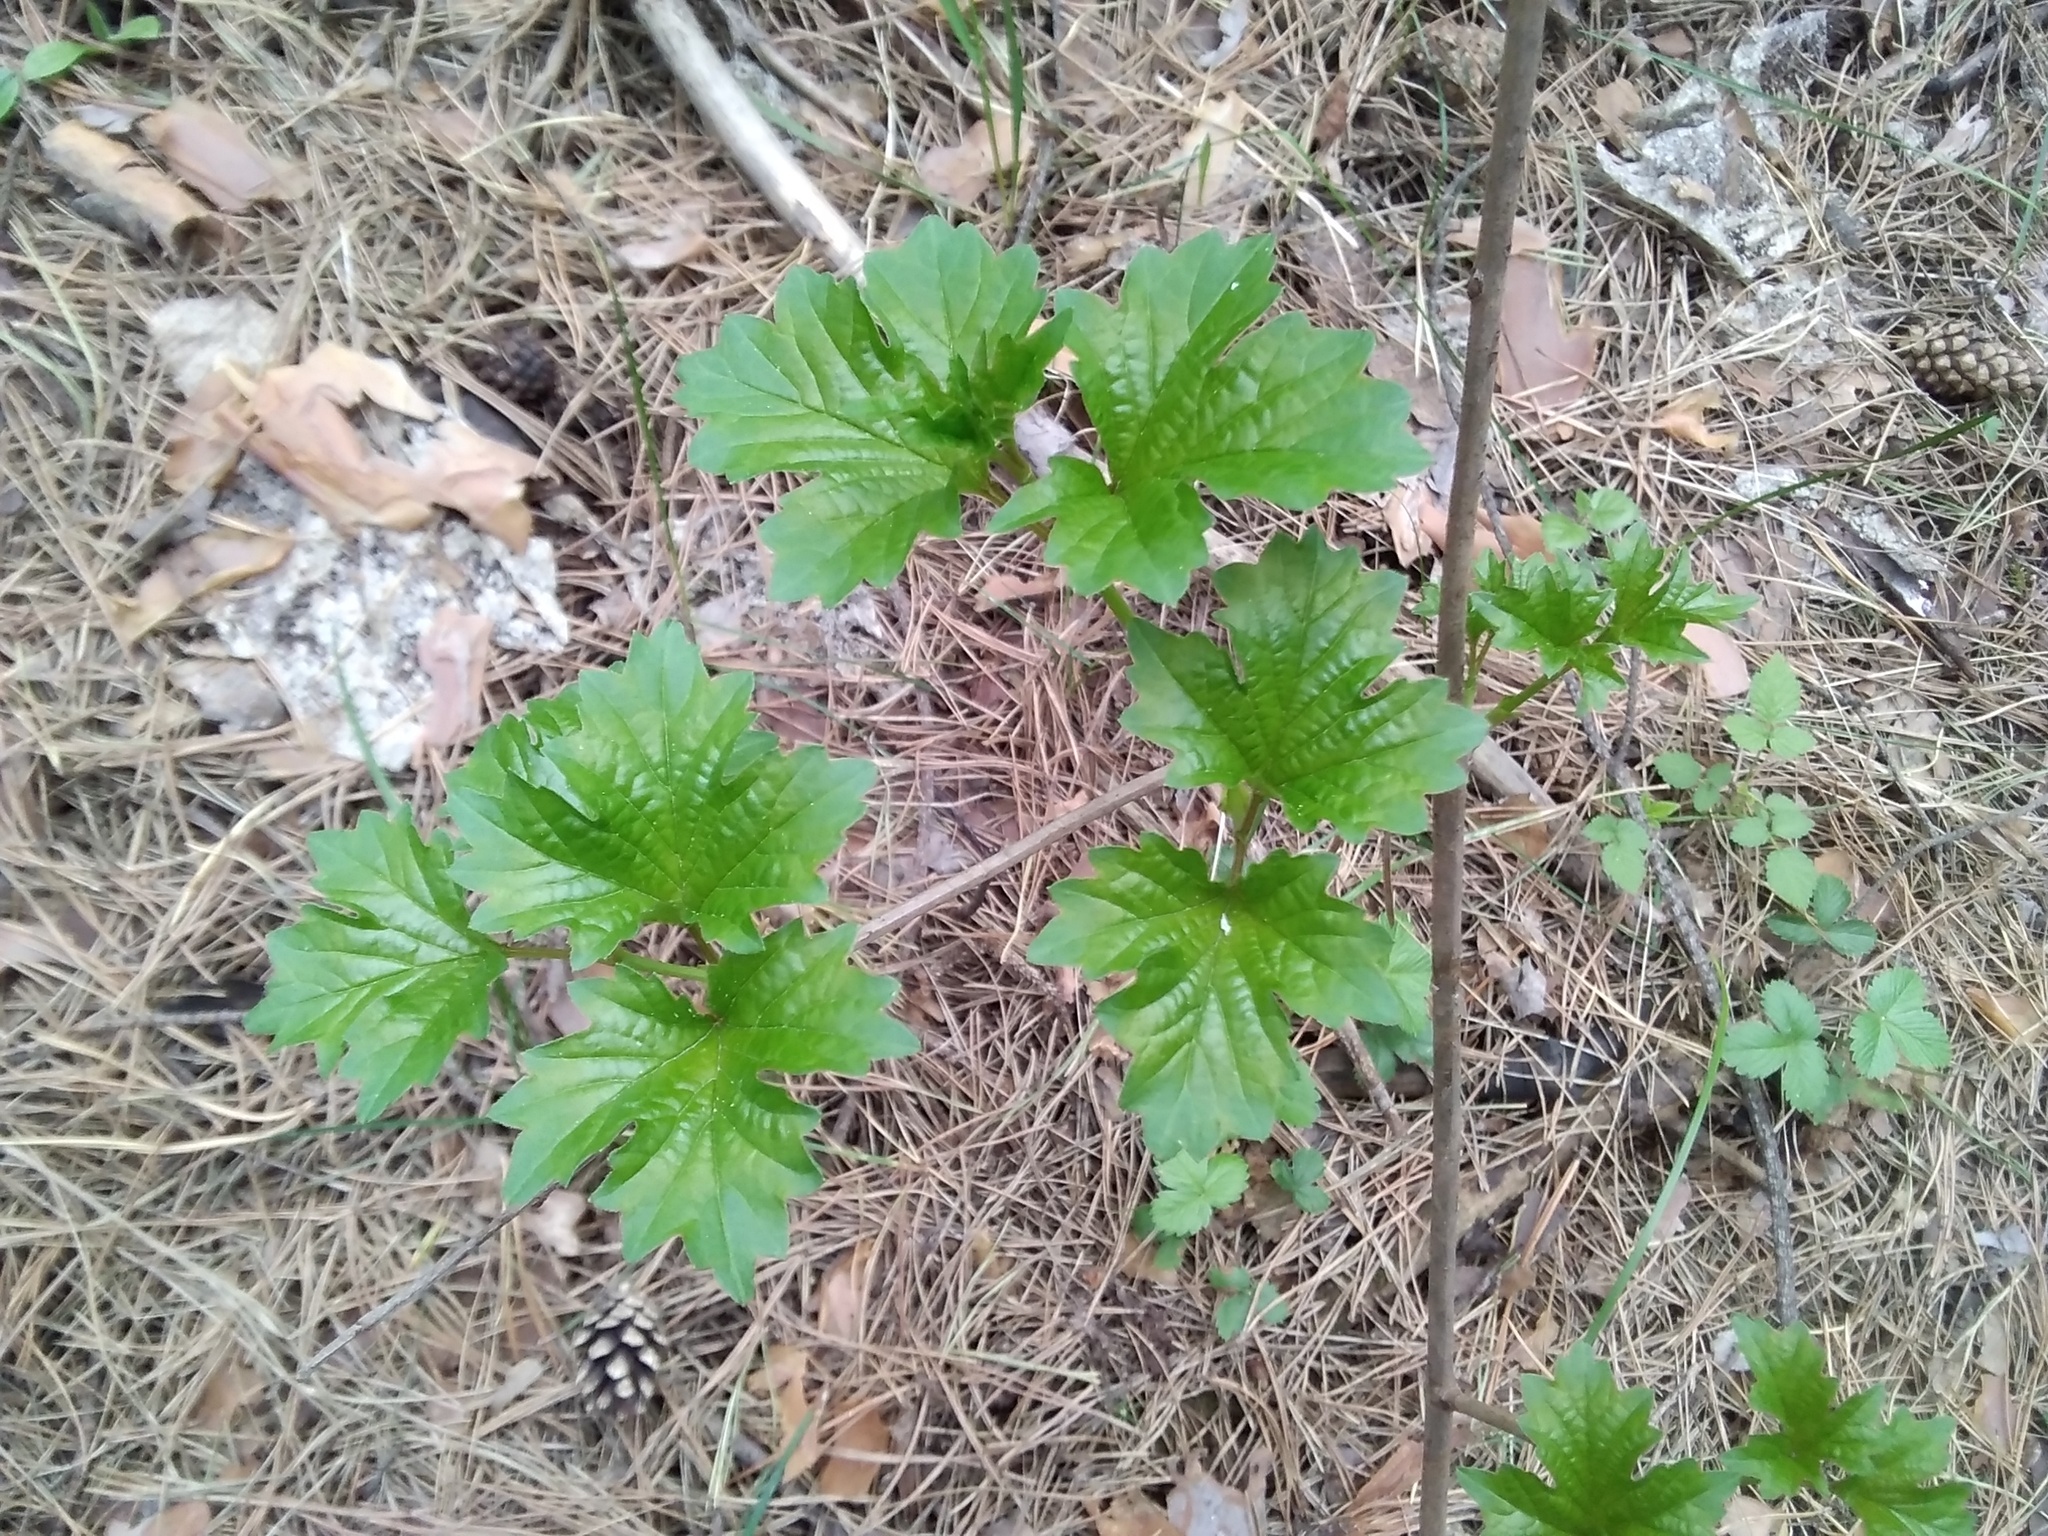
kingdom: Plantae
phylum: Tracheophyta
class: Magnoliopsida
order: Dipsacales
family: Viburnaceae
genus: Viburnum
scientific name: Viburnum opulus
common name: Guelder-rose
